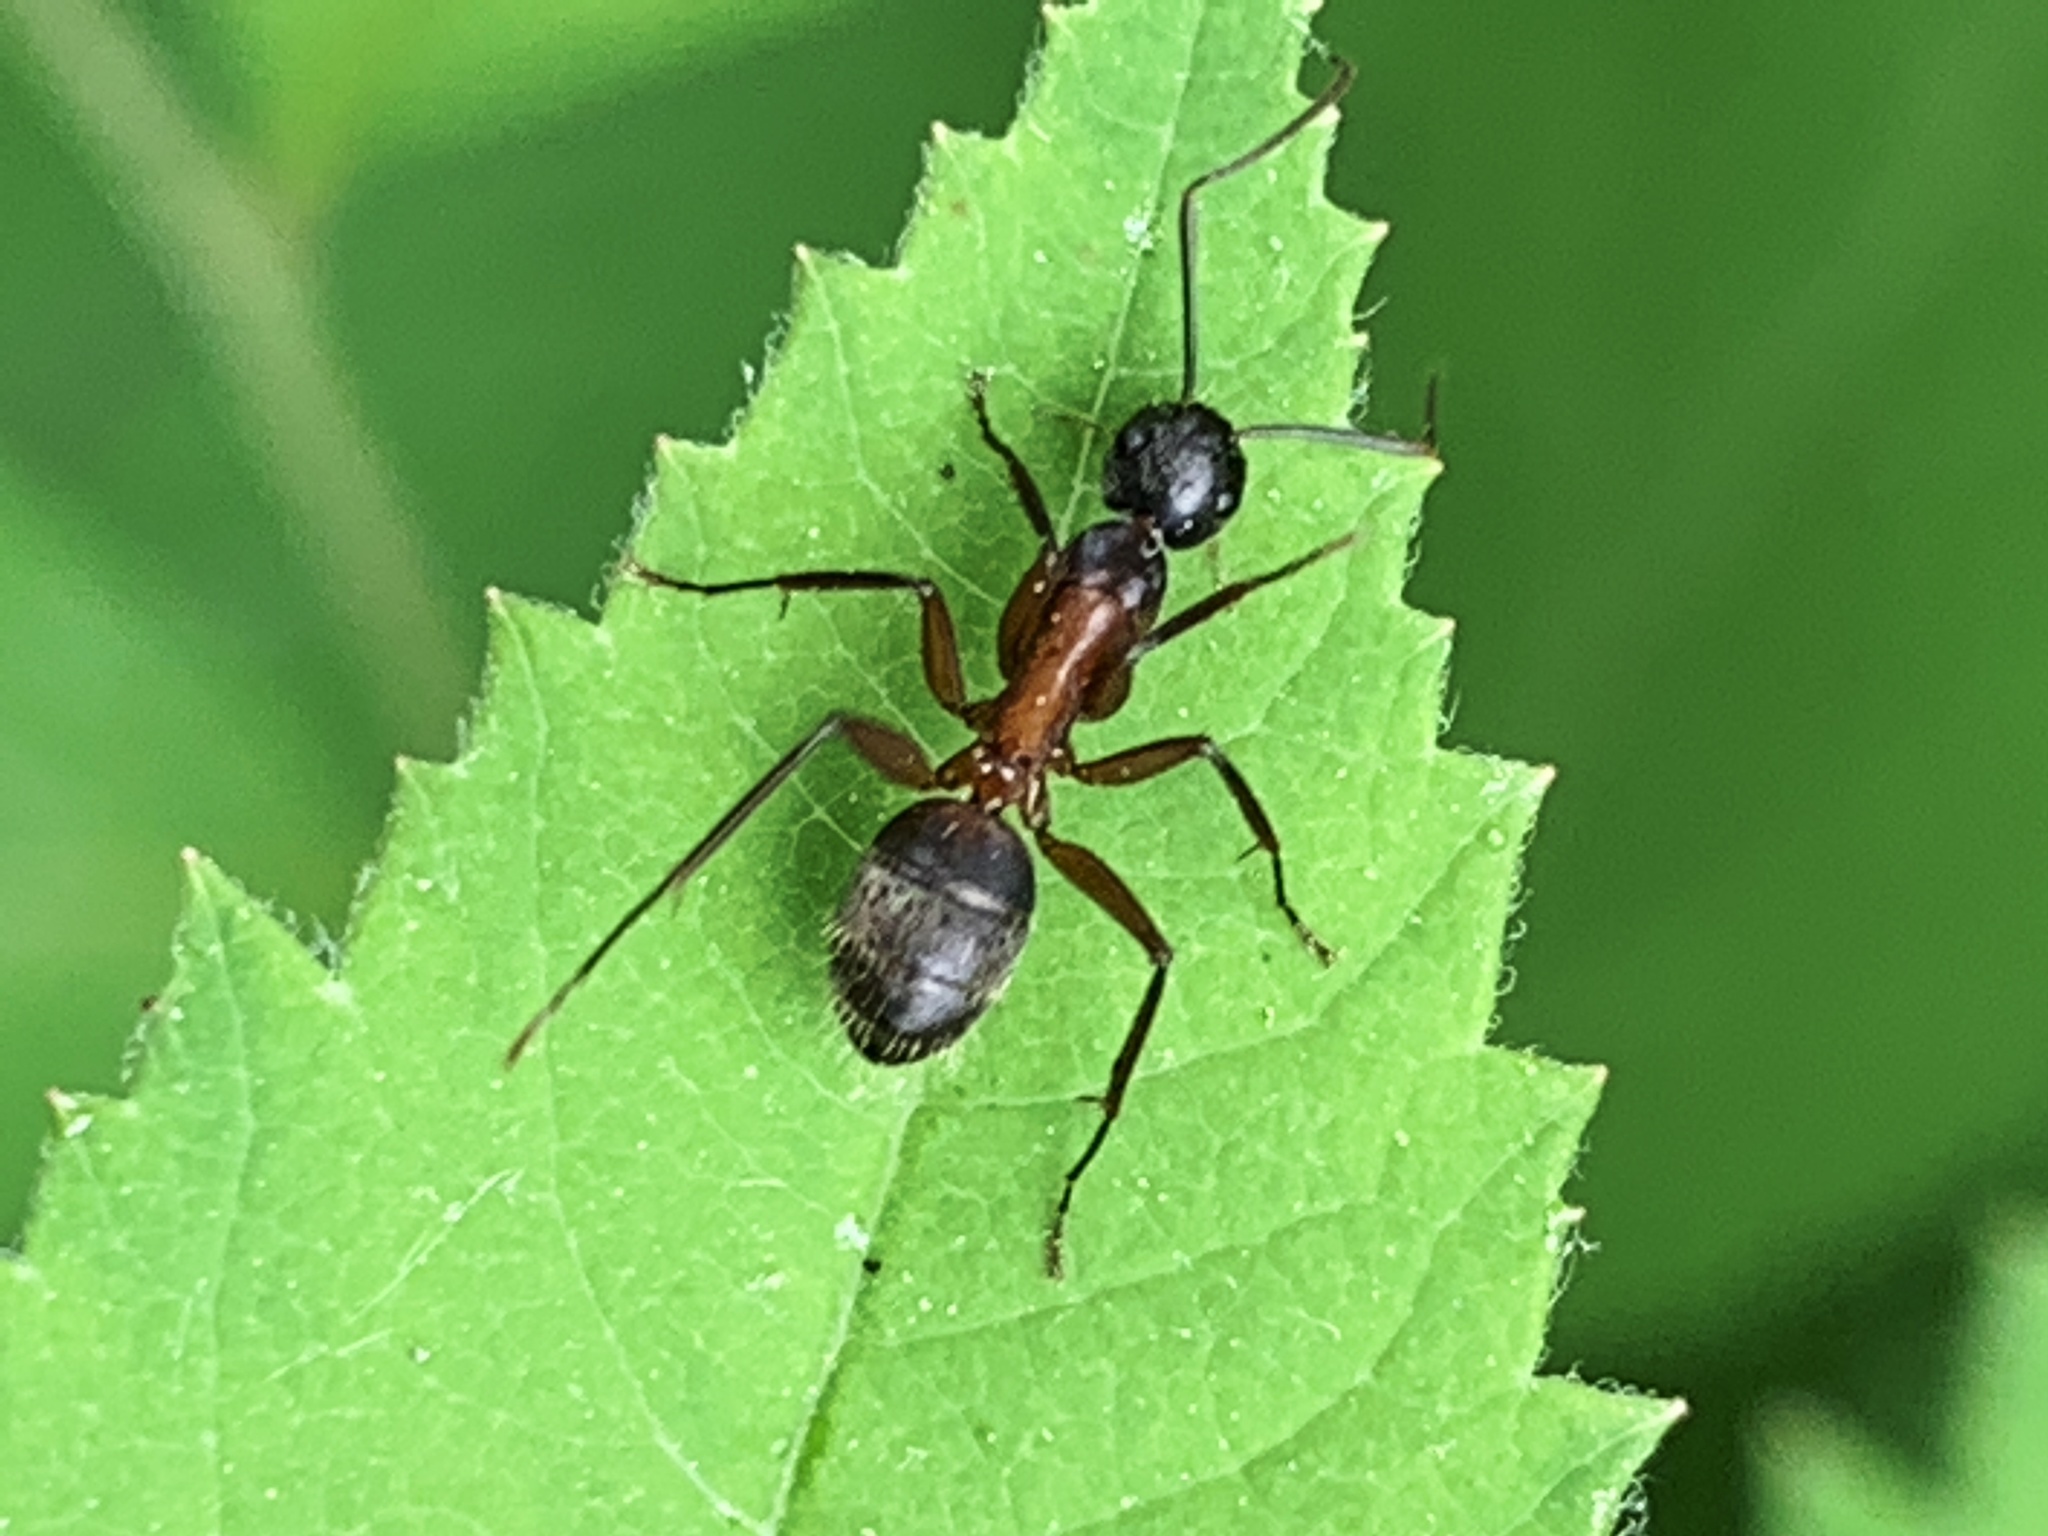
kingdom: Animalia
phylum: Arthropoda
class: Insecta
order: Hymenoptera
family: Formicidae
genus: Camponotus
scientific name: Camponotus chromaiodes
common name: Red carpenter ant
